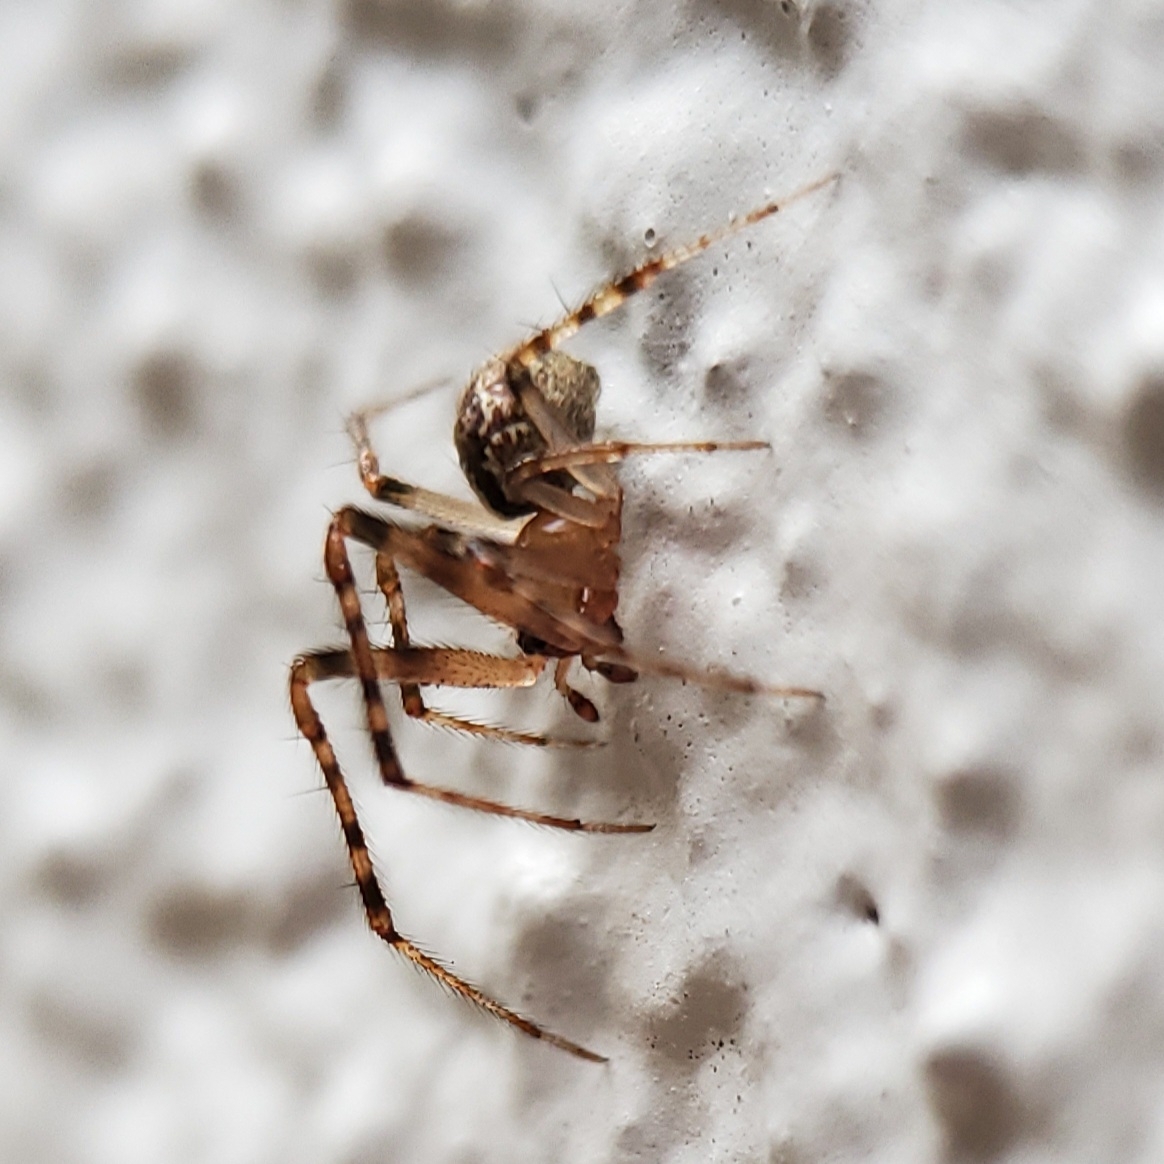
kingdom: Animalia
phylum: Arthropoda
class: Arachnida
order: Araneae
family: Theridiidae
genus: Cryptachaea
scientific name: Cryptachaea veruculata
